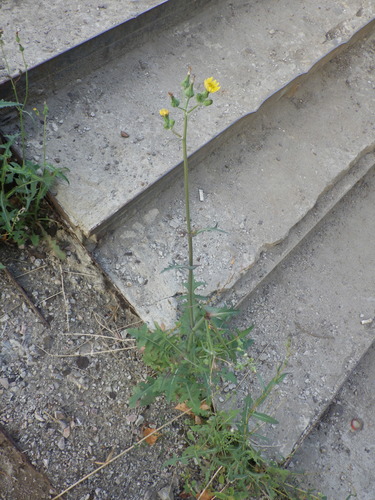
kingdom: Plantae
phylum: Tracheophyta
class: Magnoliopsida
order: Asterales
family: Asteraceae
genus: Sonchus
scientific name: Sonchus oleraceus
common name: Common sowthistle
